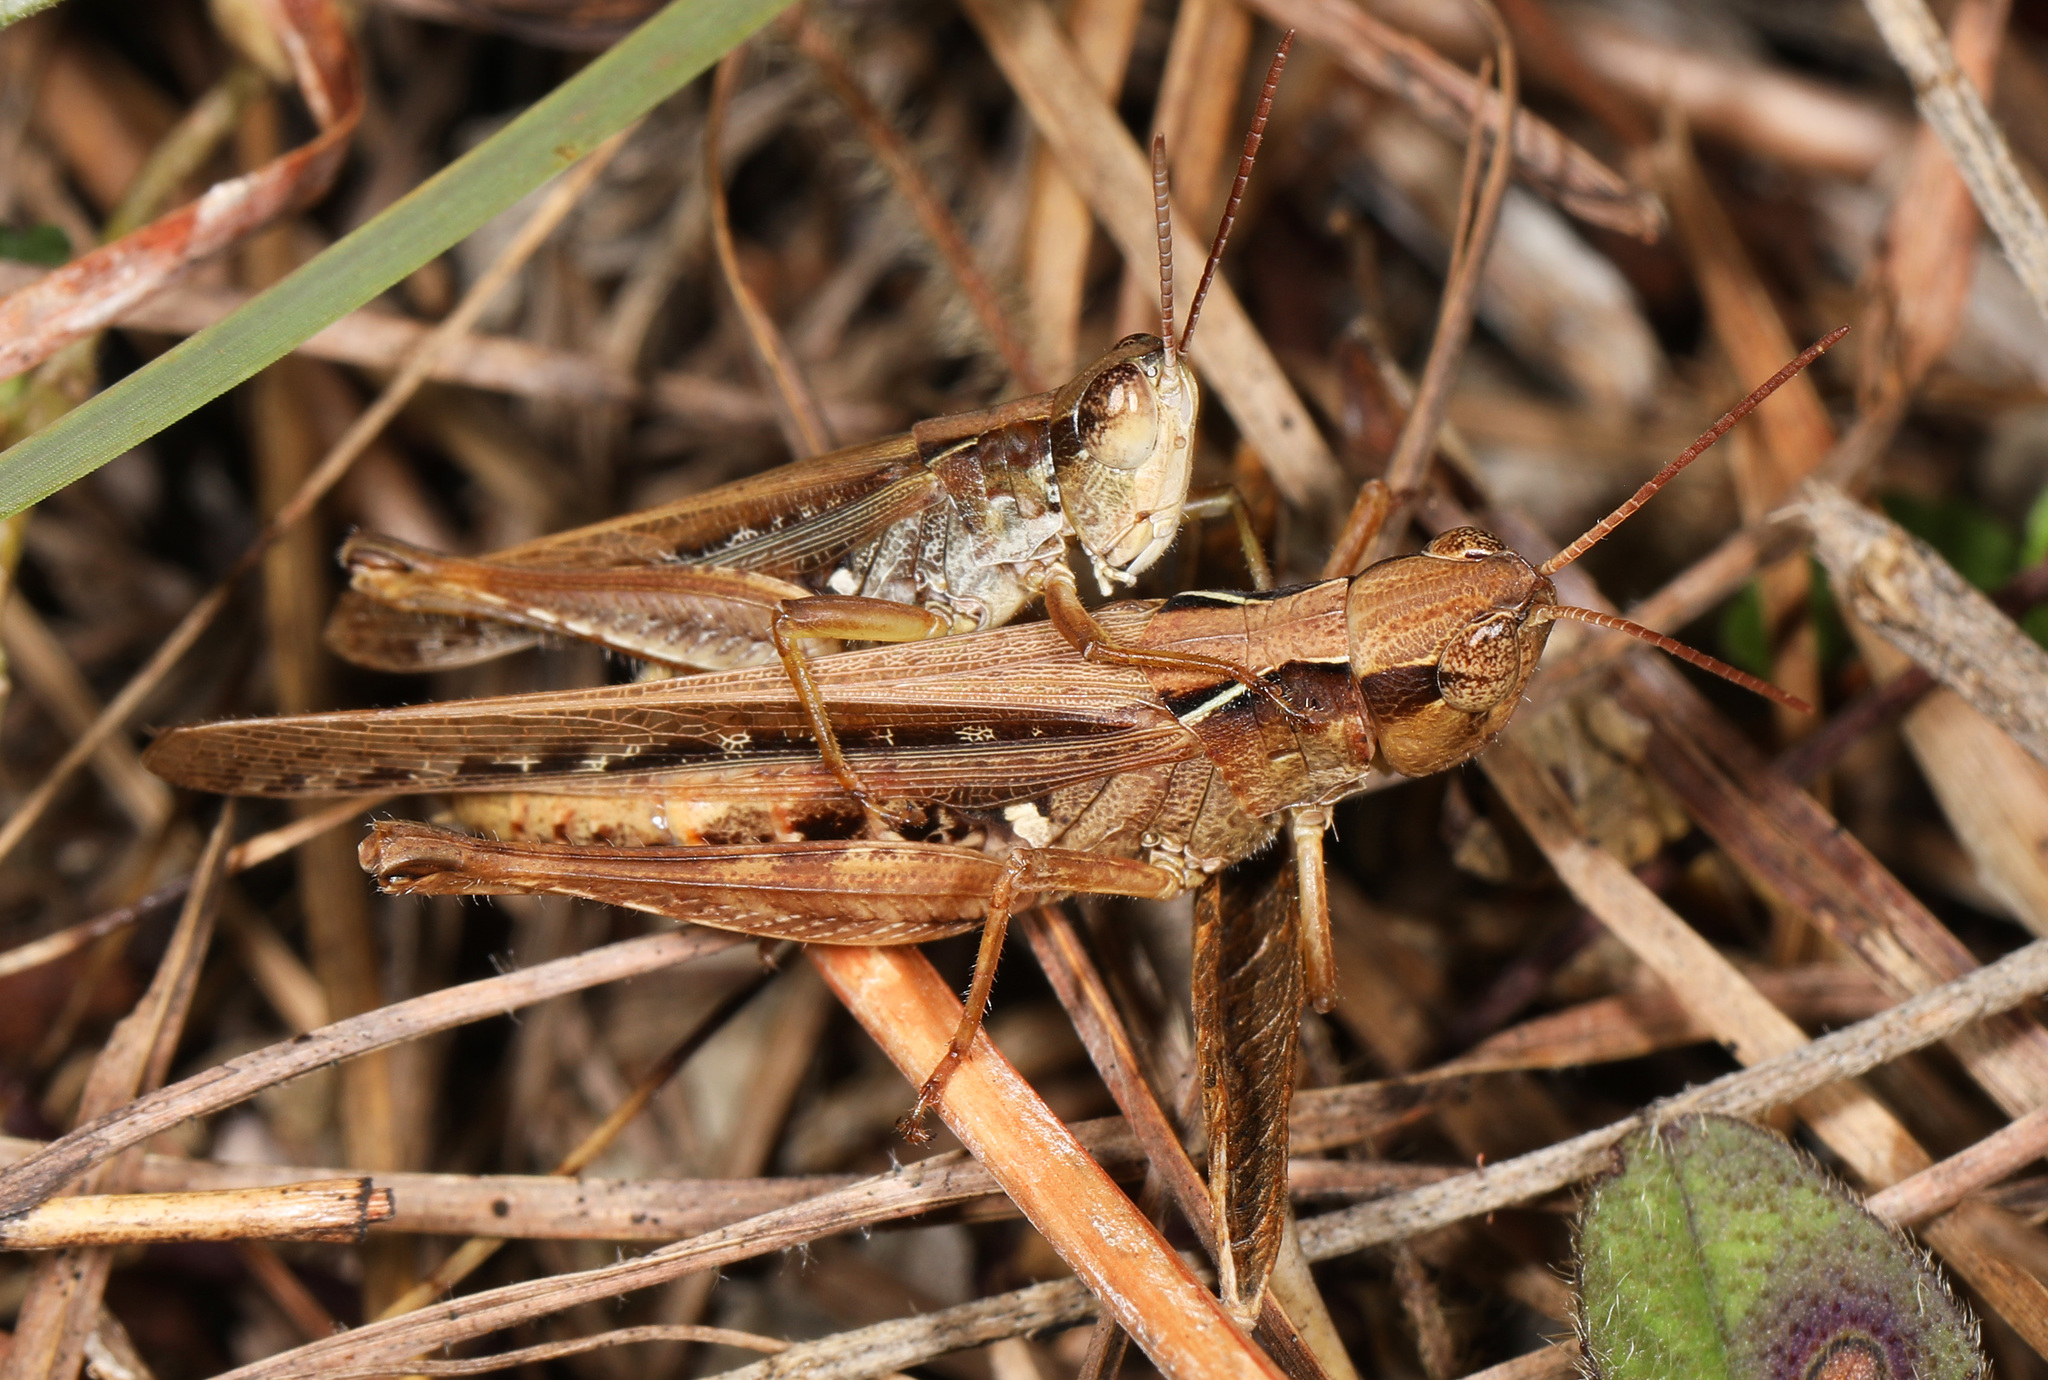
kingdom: Animalia
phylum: Arthropoda
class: Insecta
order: Orthoptera
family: Acrididae
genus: Orphulella
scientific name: Orphulella pelidna
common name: Spotted-wing grasshopper
